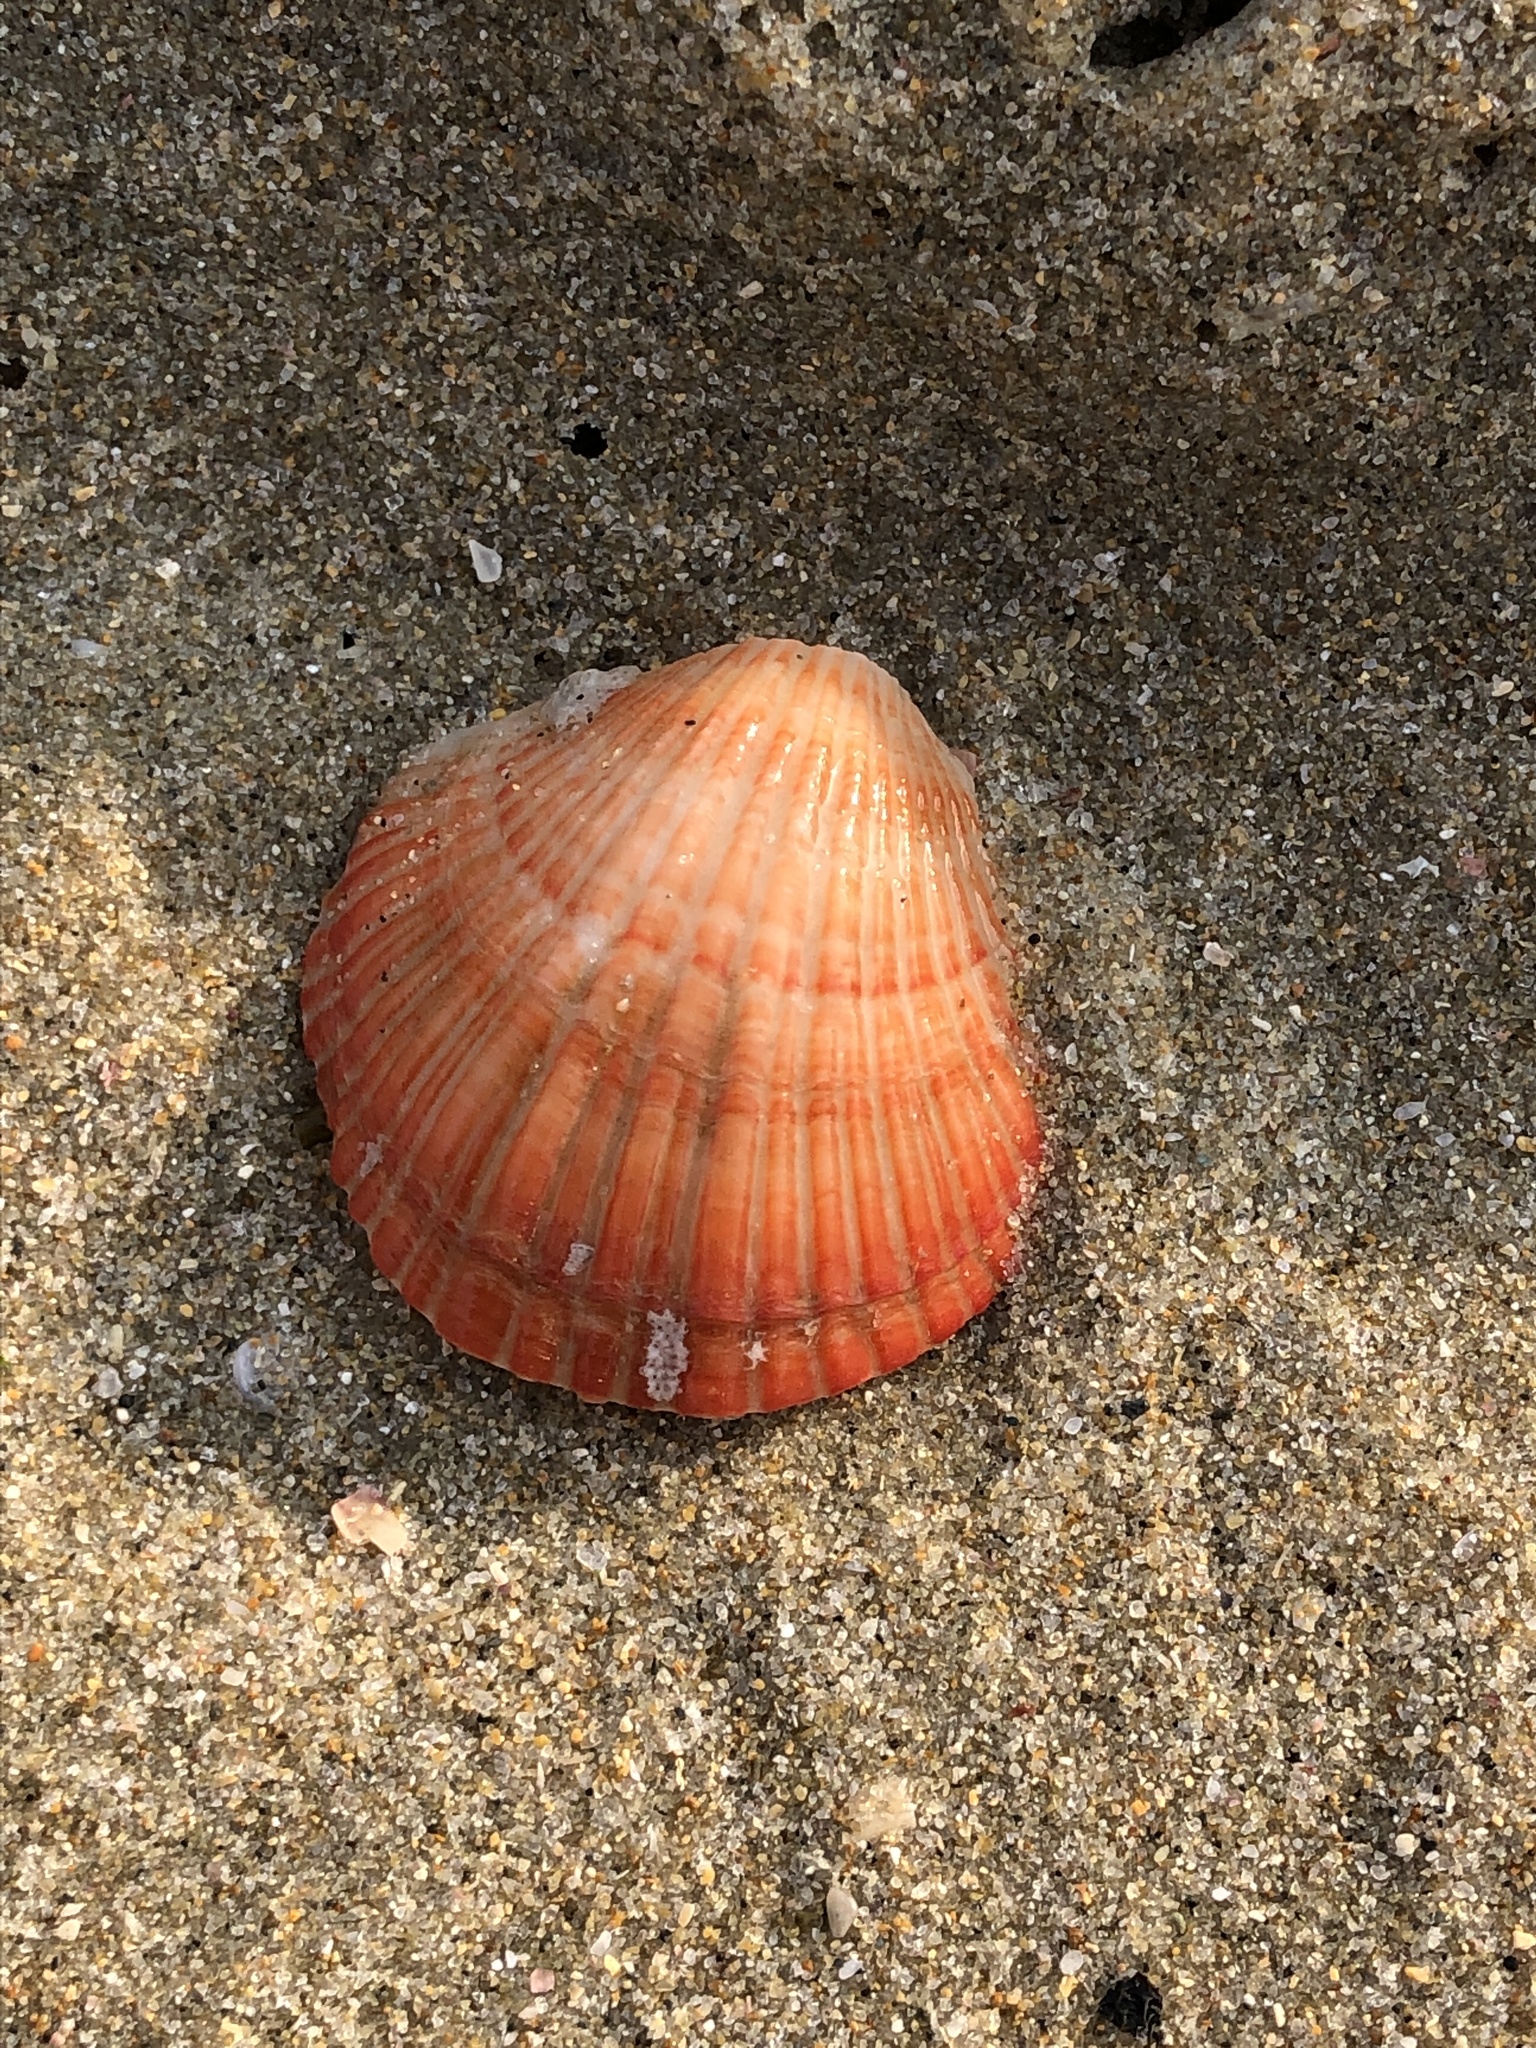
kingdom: Animalia
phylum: Brachiopoda
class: Rhynchonellata
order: Terebratulida
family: Terebrataliidae
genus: Coptothyris
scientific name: Coptothyris grayi
